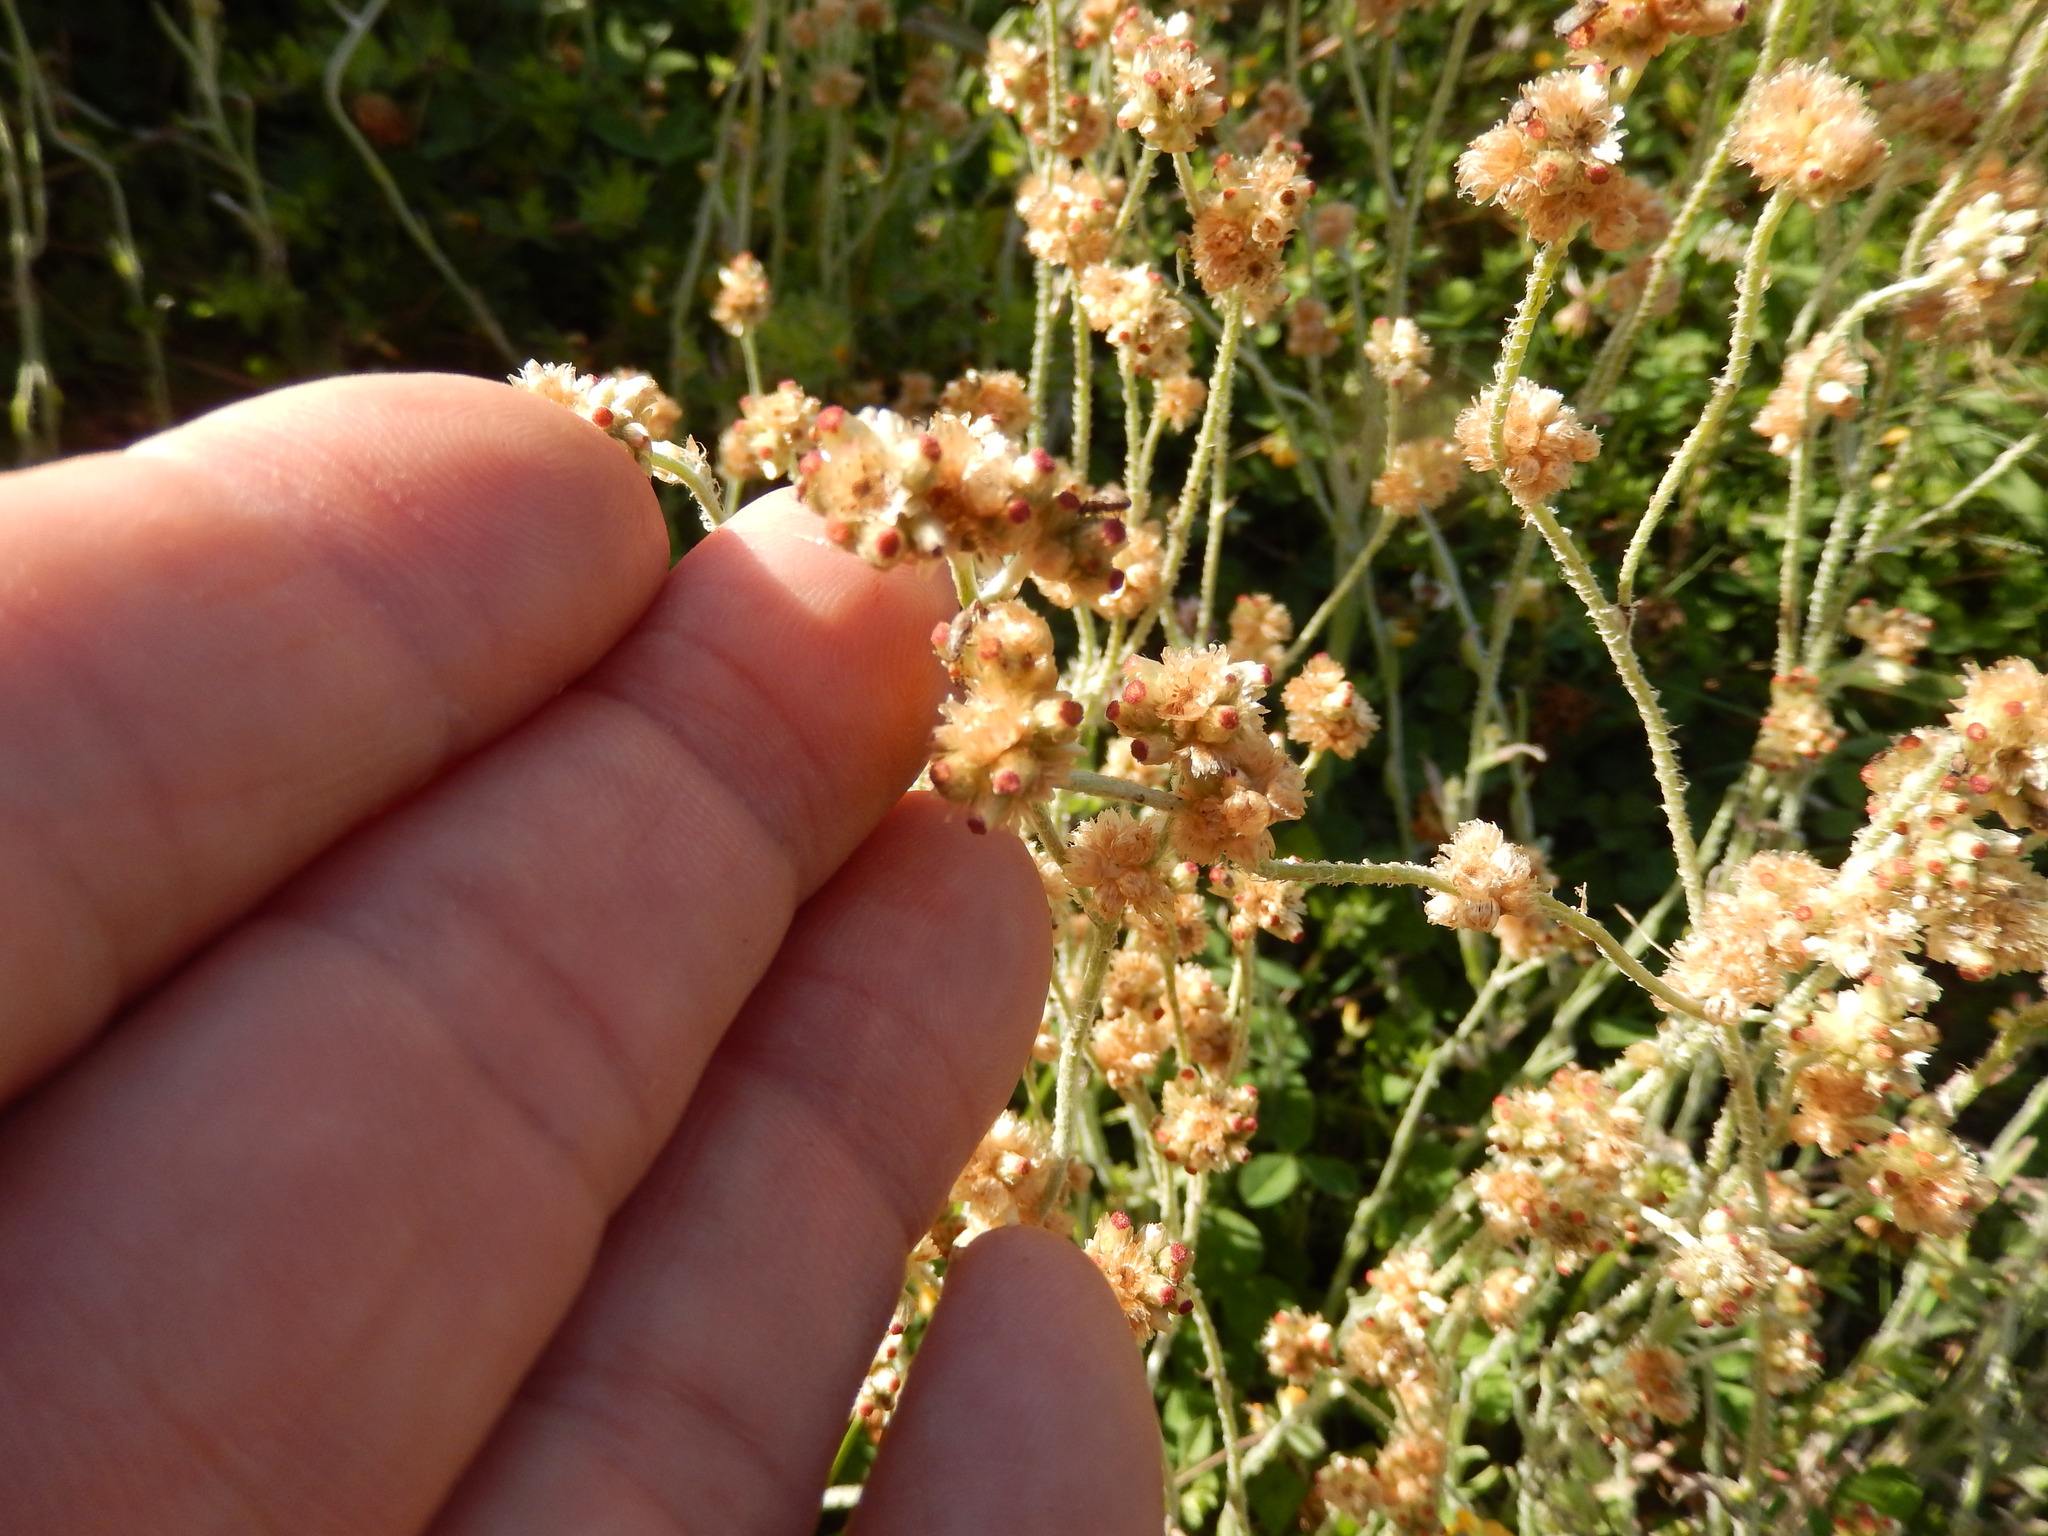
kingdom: Plantae
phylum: Tracheophyta
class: Magnoliopsida
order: Asterales
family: Asteraceae
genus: Helichrysum
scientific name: Helichrysum luteoalbum
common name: Daisy
